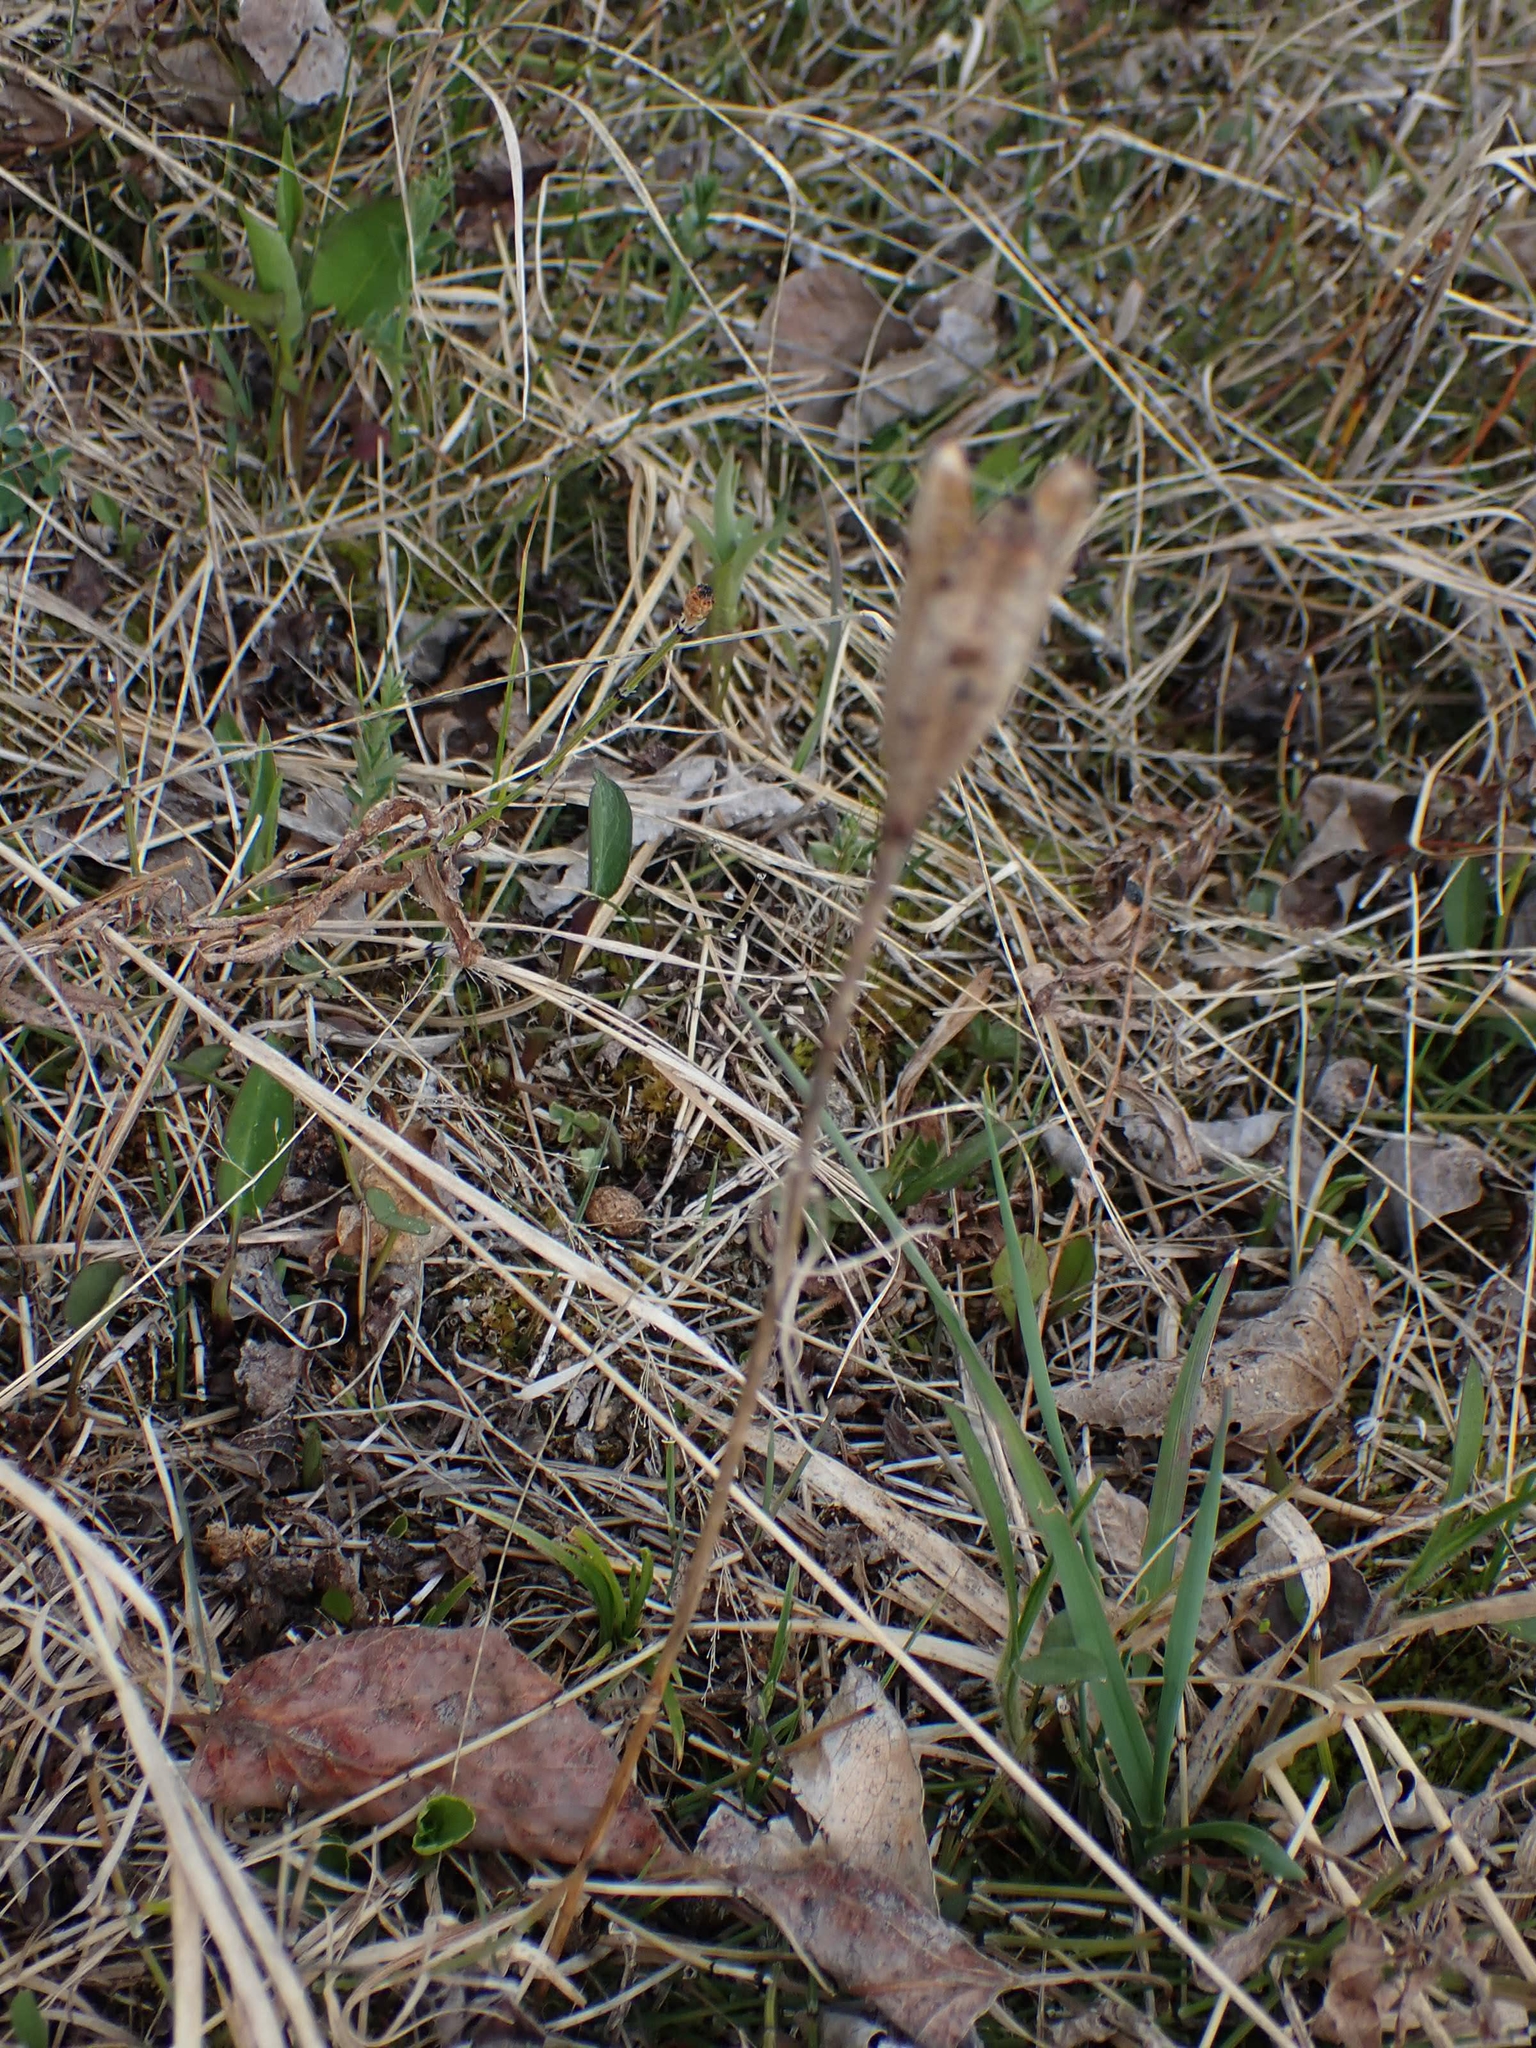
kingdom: Plantae
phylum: Tracheophyta
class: Liliopsida
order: Liliales
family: Liliaceae
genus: Lilium
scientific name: Lilium philadelphicum
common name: Red lily
